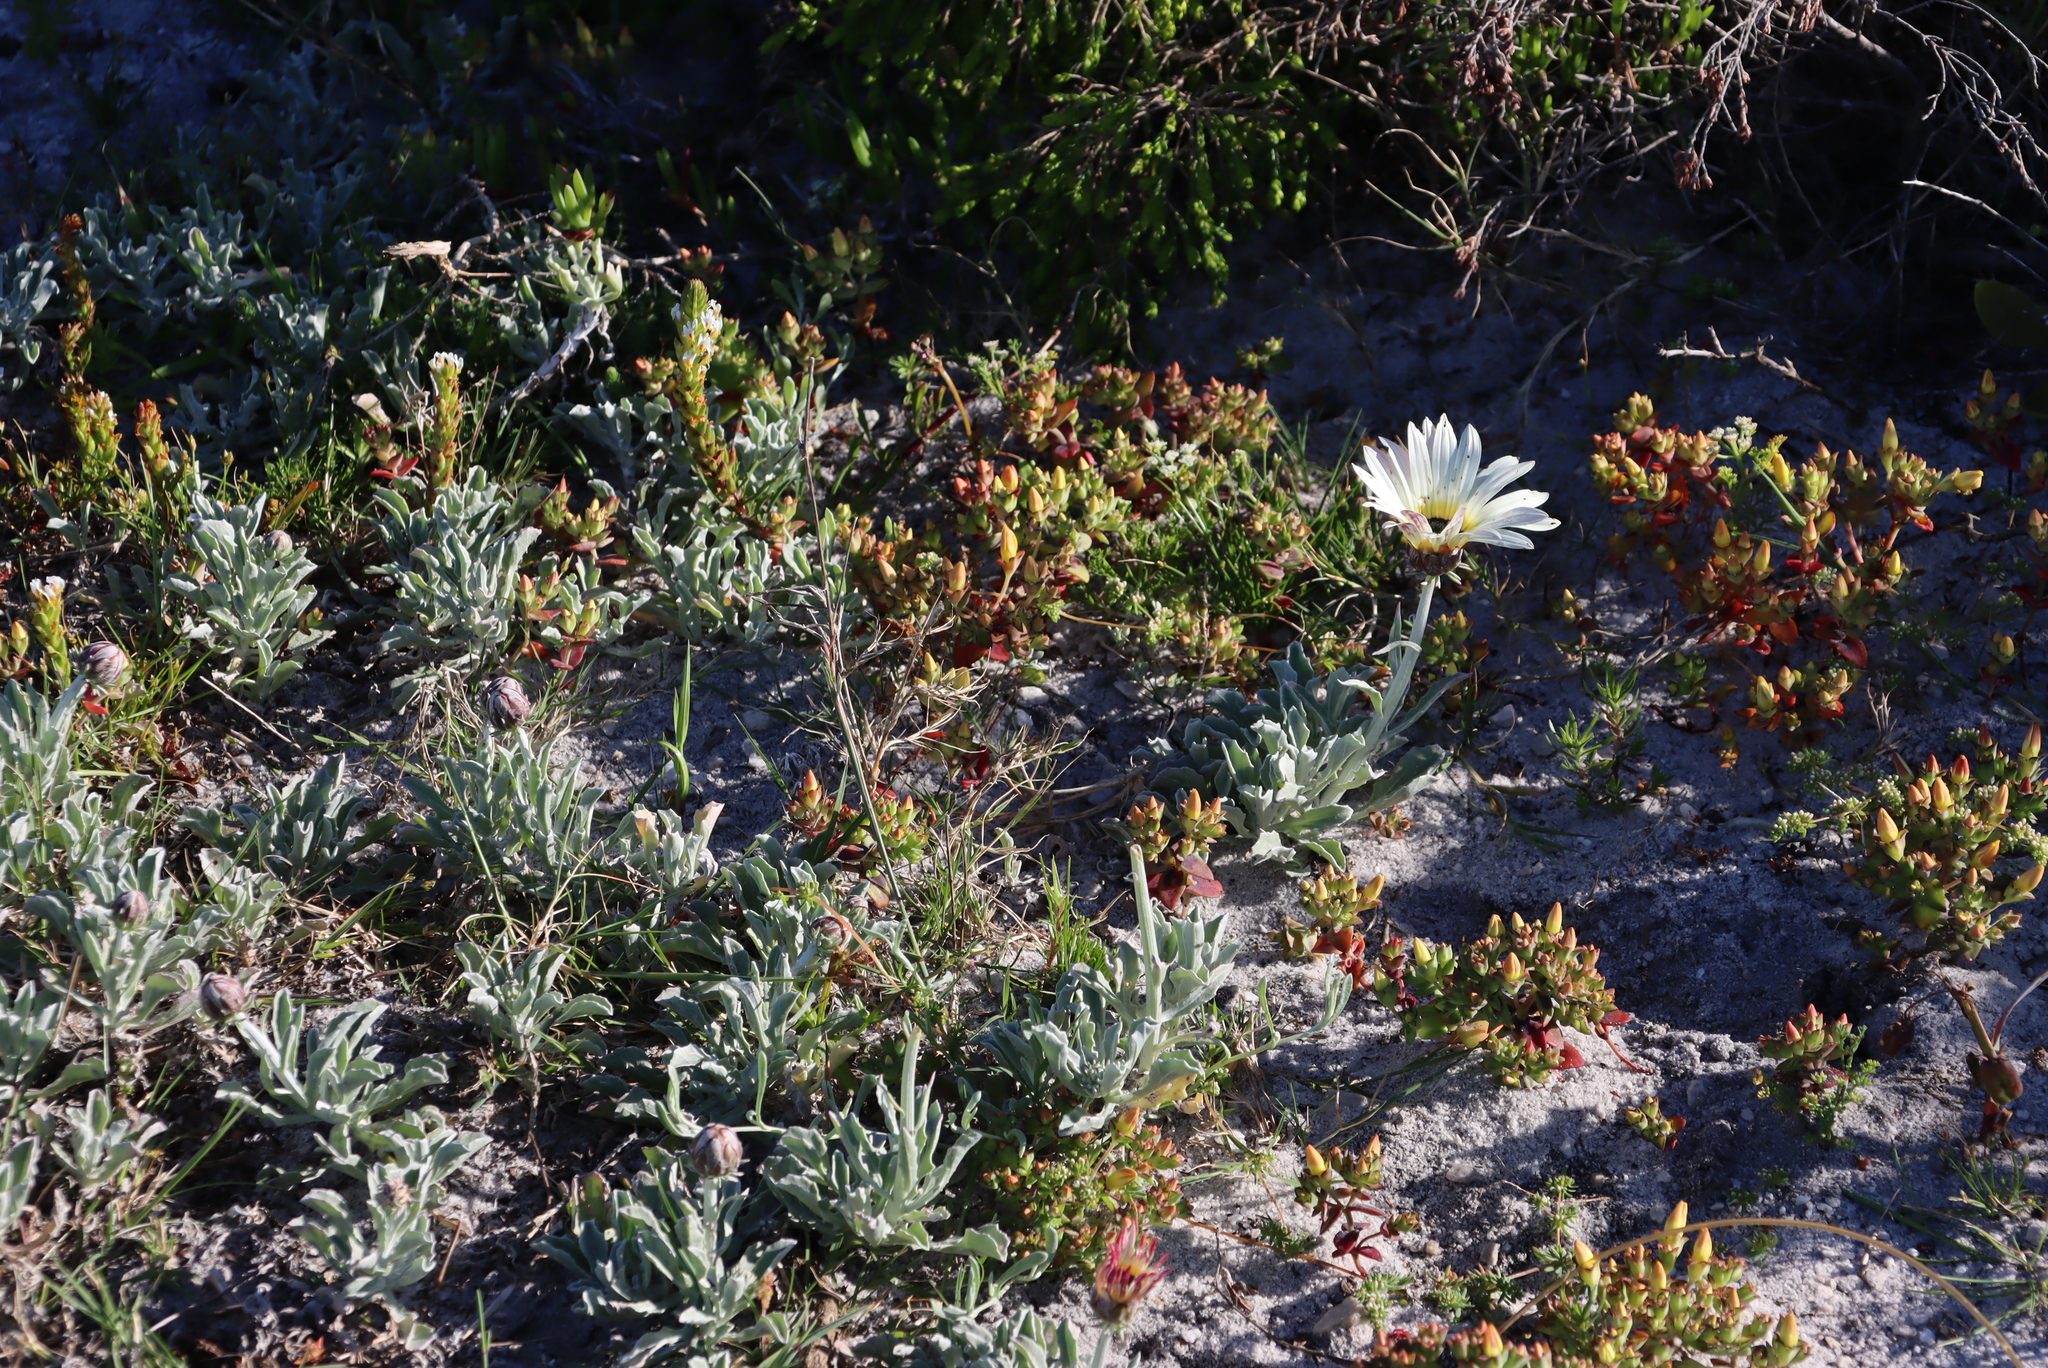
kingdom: Plantae
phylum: Tracheophyta
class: Magnoliopsida
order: Asterales
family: Asteraceae
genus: Arctotis
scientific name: Arctotis stoechadifolia
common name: African daisy
